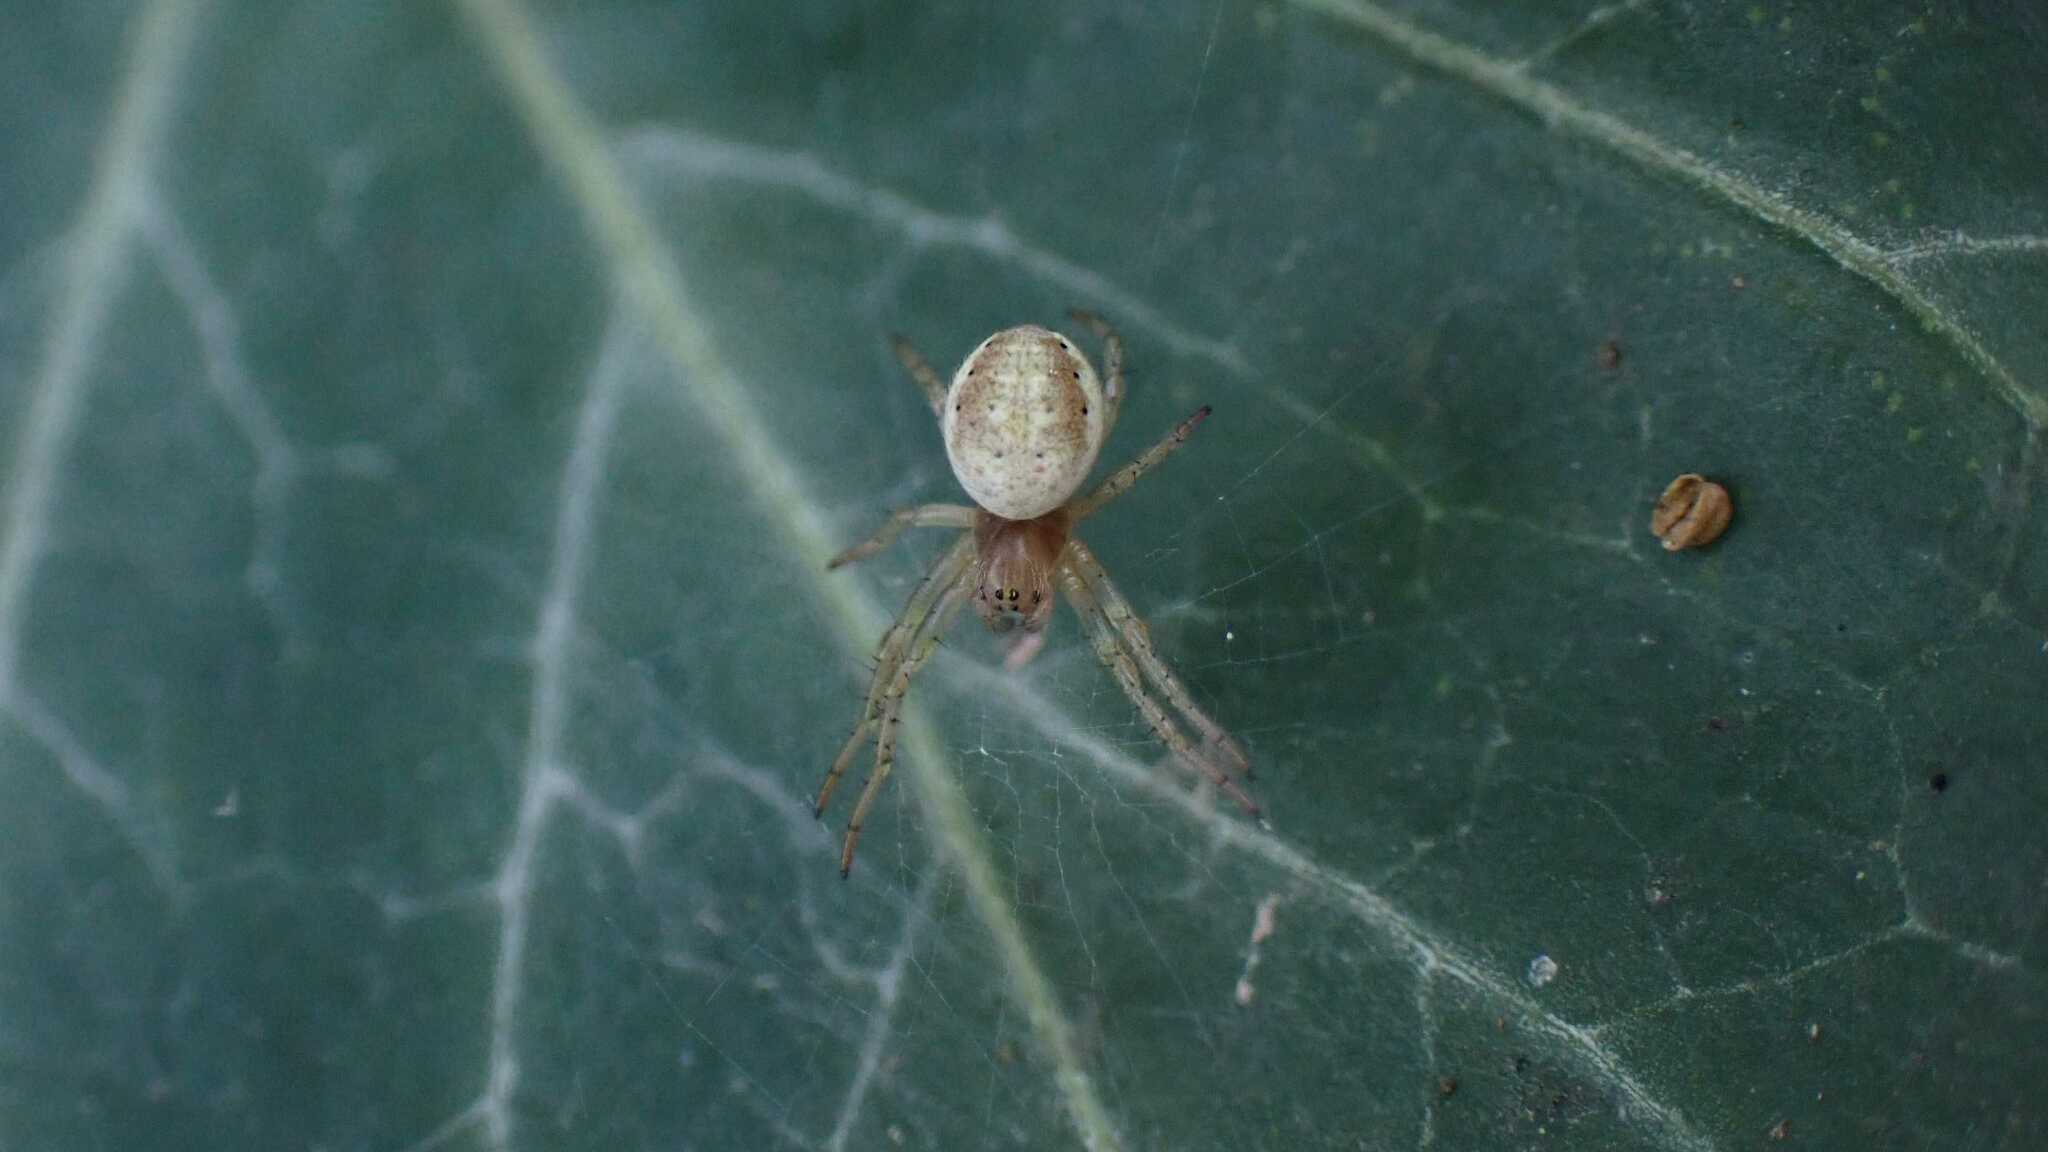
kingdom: Animalia
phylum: Arthropoda
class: Arachnida
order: Araneae
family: Araneidae
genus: Araniella
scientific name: Araniella
